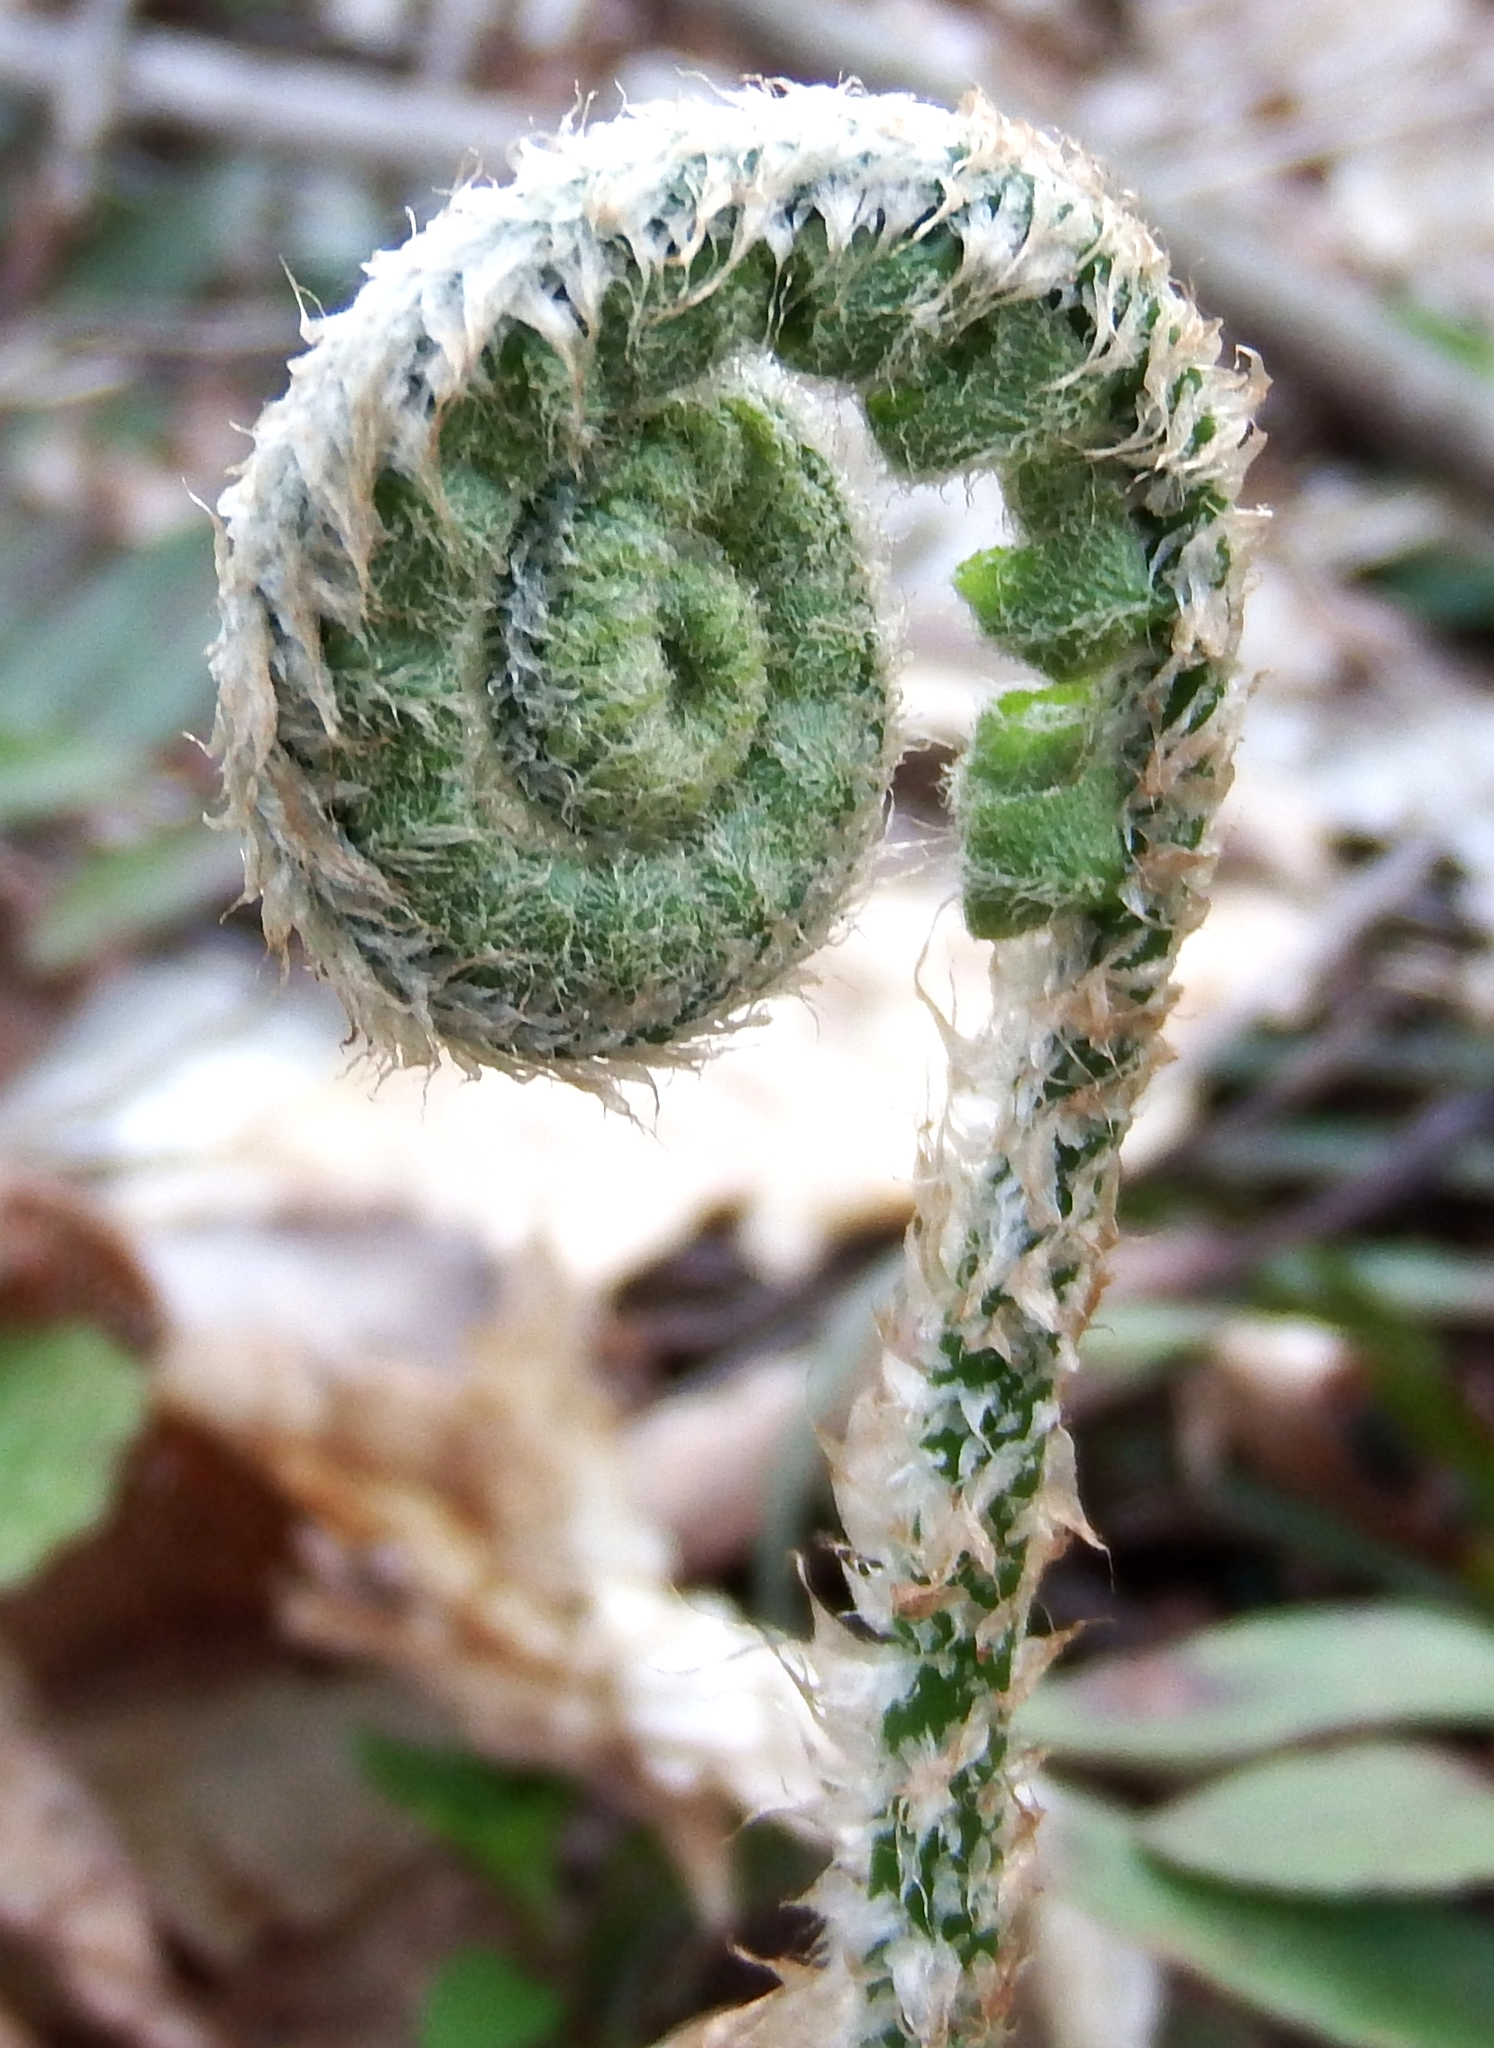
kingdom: Plantae
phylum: Tracheophyta
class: Polypodiopsida
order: Polypodiales
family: Dryopteridaceae
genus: Polystichum
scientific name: Polystichum acrostichoides
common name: Christmas fern
